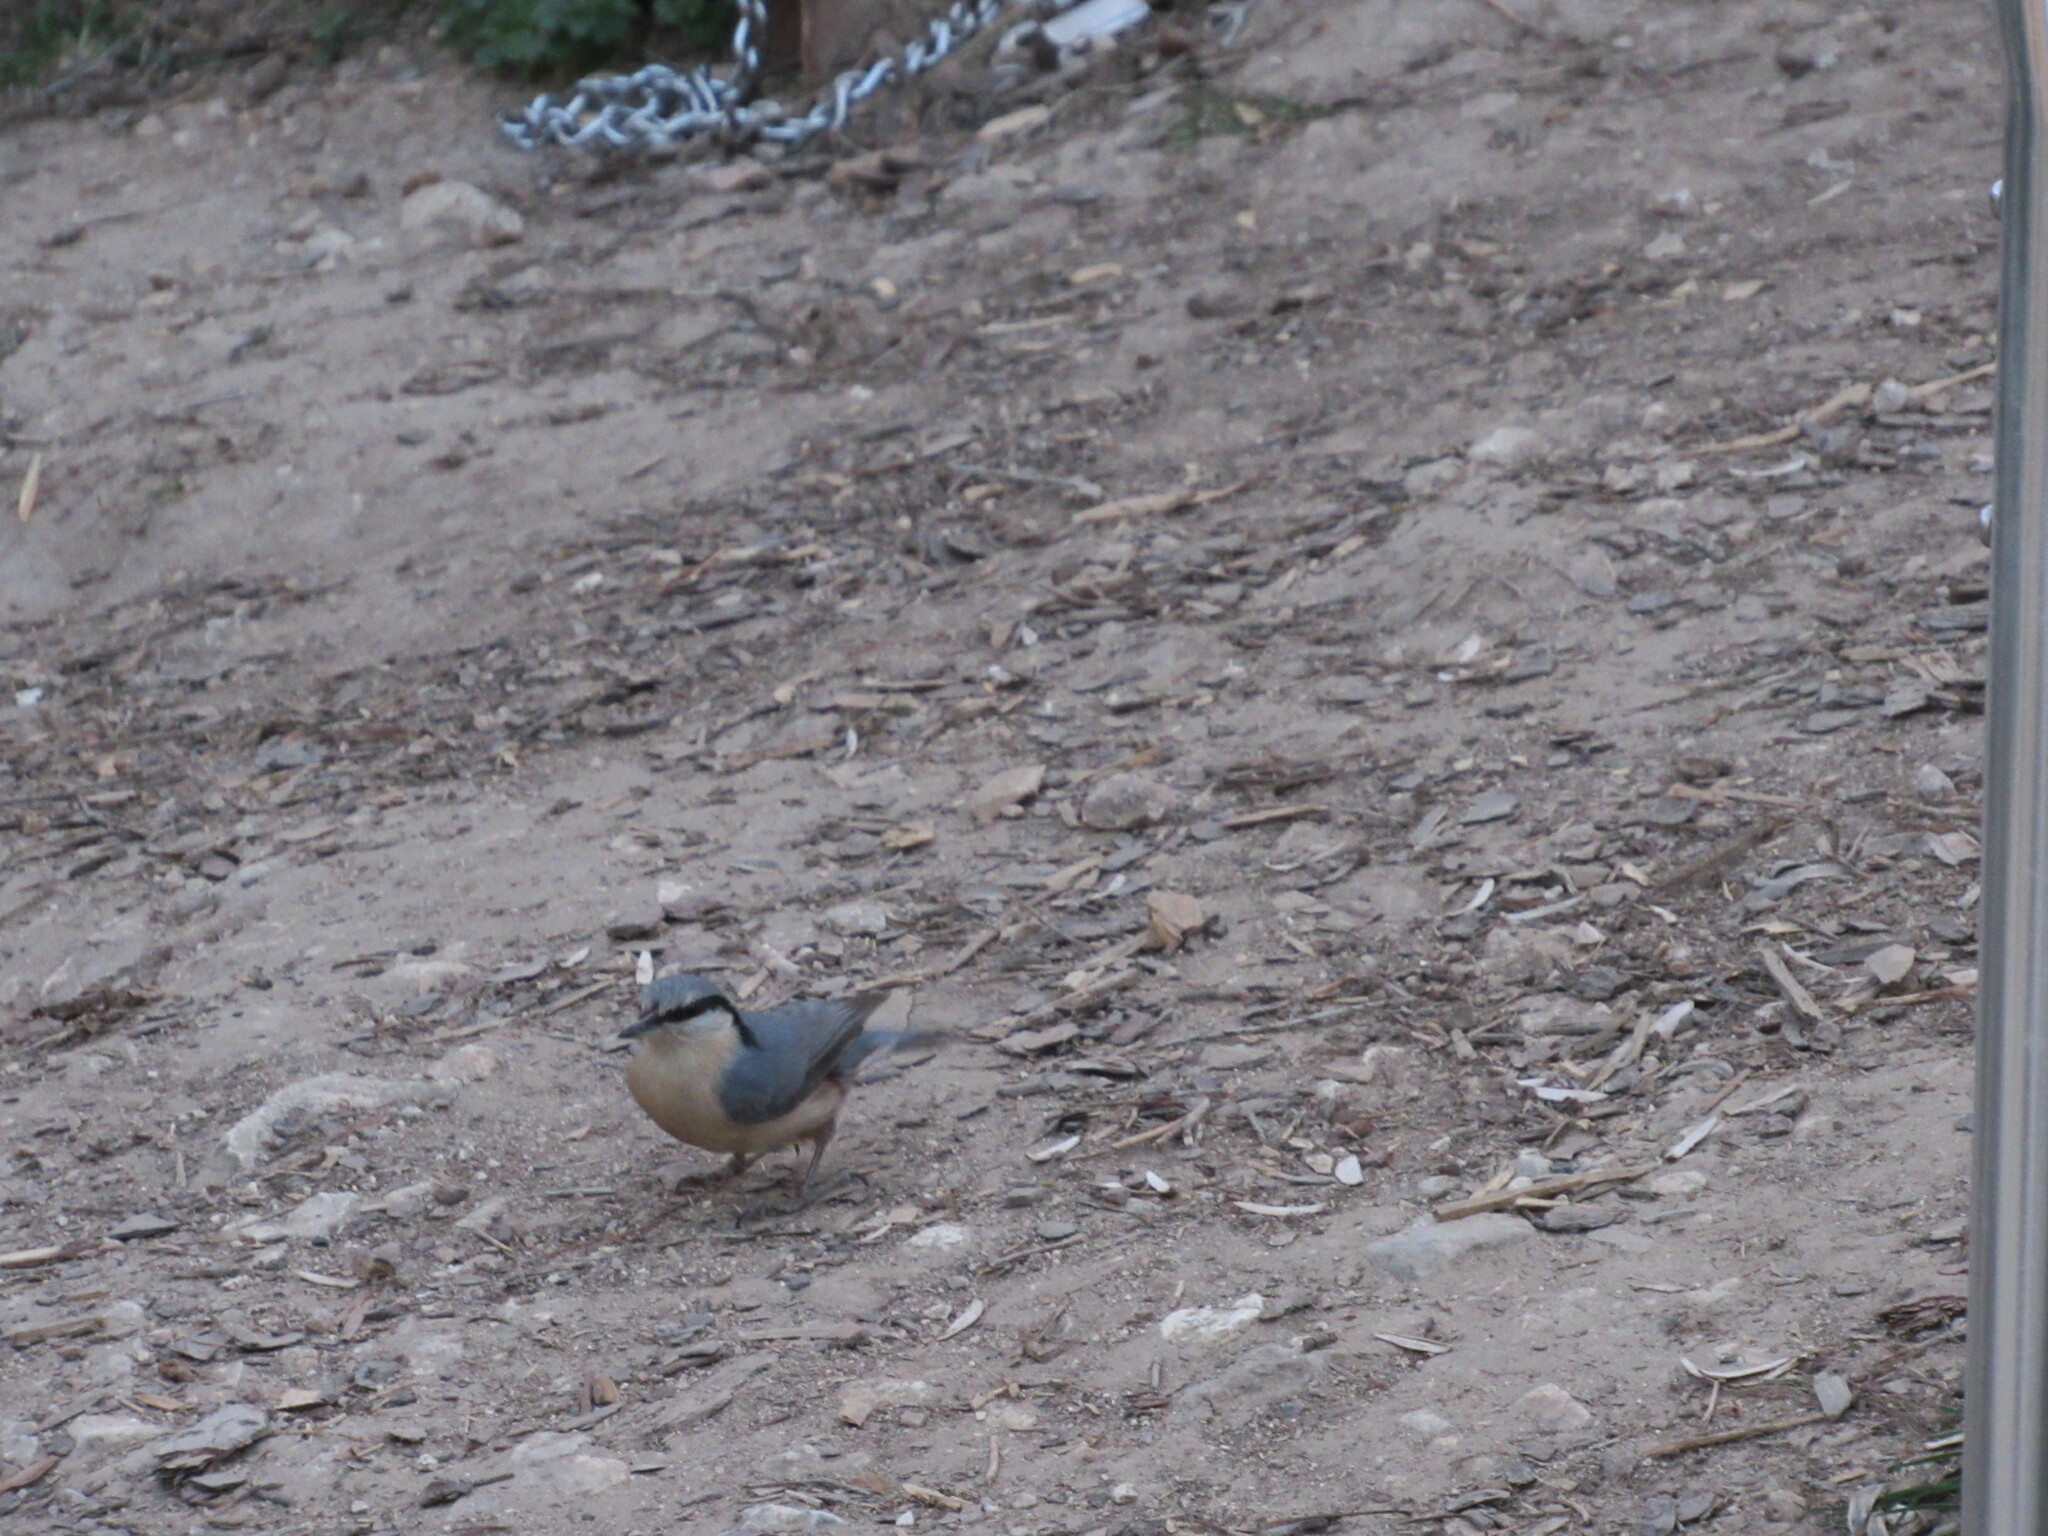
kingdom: Animalia
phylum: Chordata
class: Aves
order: Passeriformes
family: Sittidae
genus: Sitta
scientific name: Sitta europaea
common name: Eurasian nuthatch
